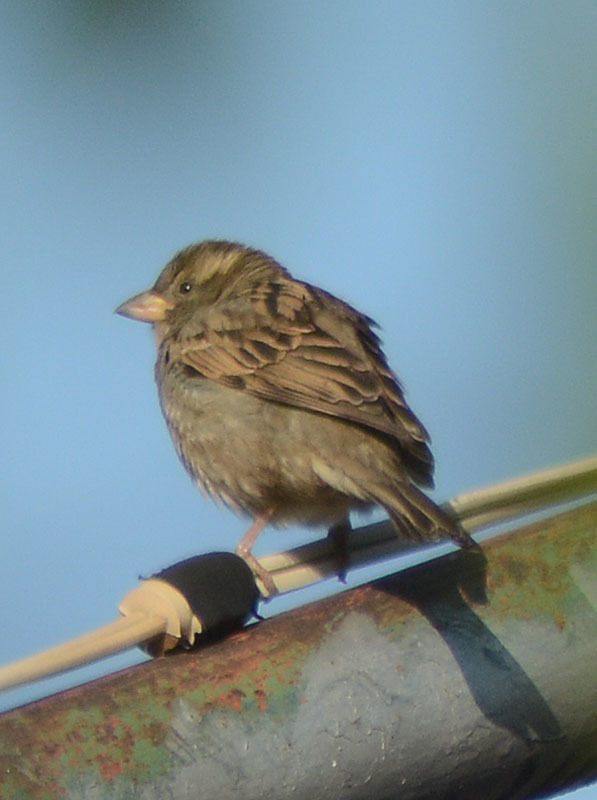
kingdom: Animalia
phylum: Chordata
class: Aves
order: Passeriformes
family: Passeridae
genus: Passer
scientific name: Passer domesticus
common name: House sparrow
